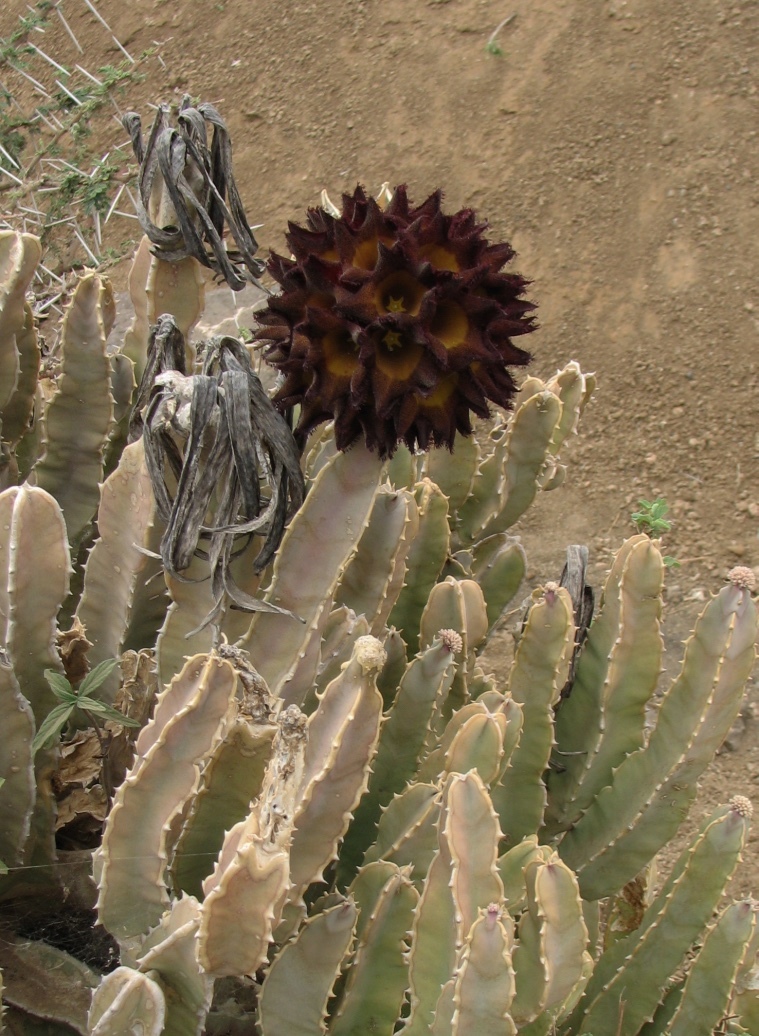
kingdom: Plantae
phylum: Tracheophyta
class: Magnoliopsida
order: Gentianales
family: Apocynaceae
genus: Ceropegia
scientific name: Ceropegia codonoides
